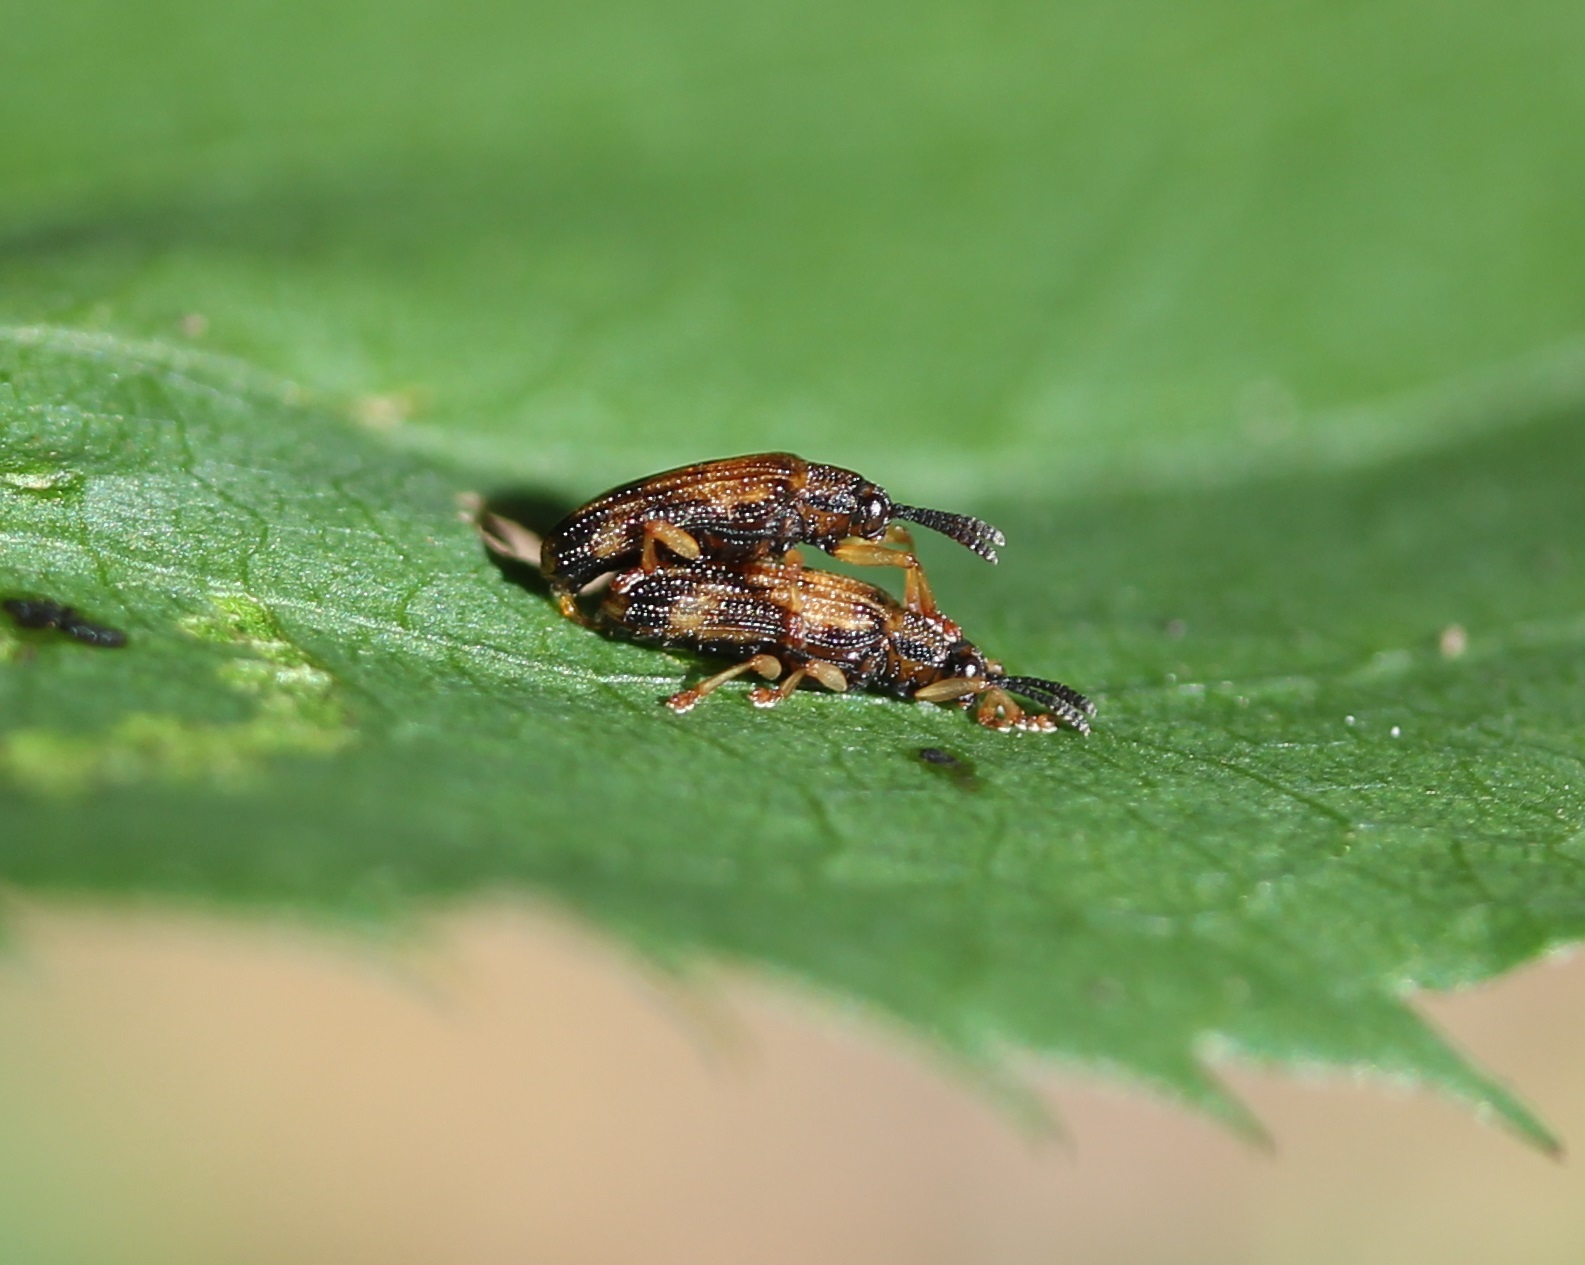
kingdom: Animalia
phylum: Arthropoda
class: Insecta
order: Coleoptera
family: Chrysomelidae
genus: Sumitrosis
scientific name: Sumitrosis inaequalis
